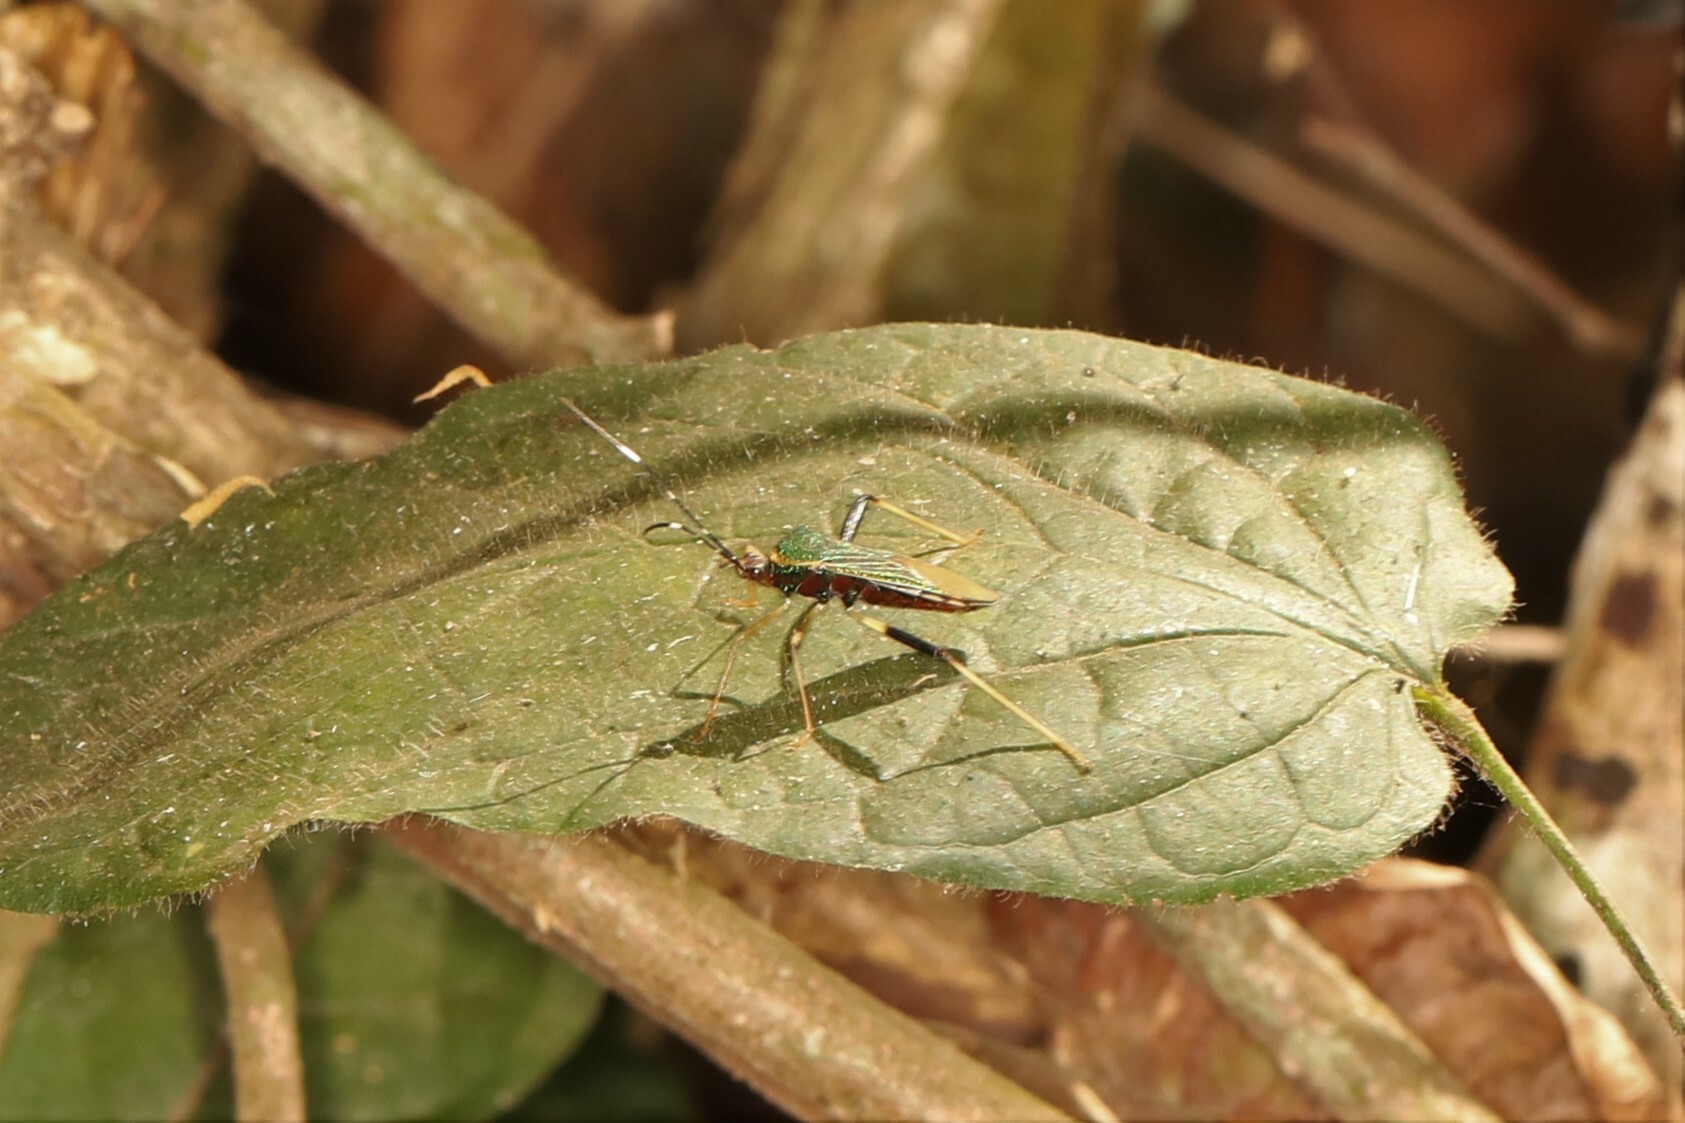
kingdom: Animalia
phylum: Arthropoda
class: Insecta
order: Hemiptera
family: Coreidae
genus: Petalops
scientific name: Petalops azureus
